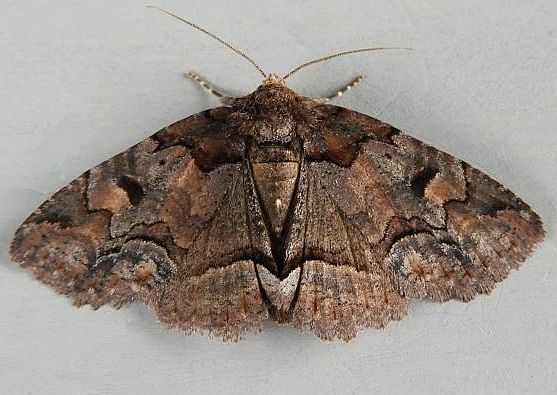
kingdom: Animalia
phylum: Arthropoda
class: Insecta
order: Lepidoptera
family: Erebidae
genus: Zale
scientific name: Zale helata
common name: Brown-spotted zale moth
